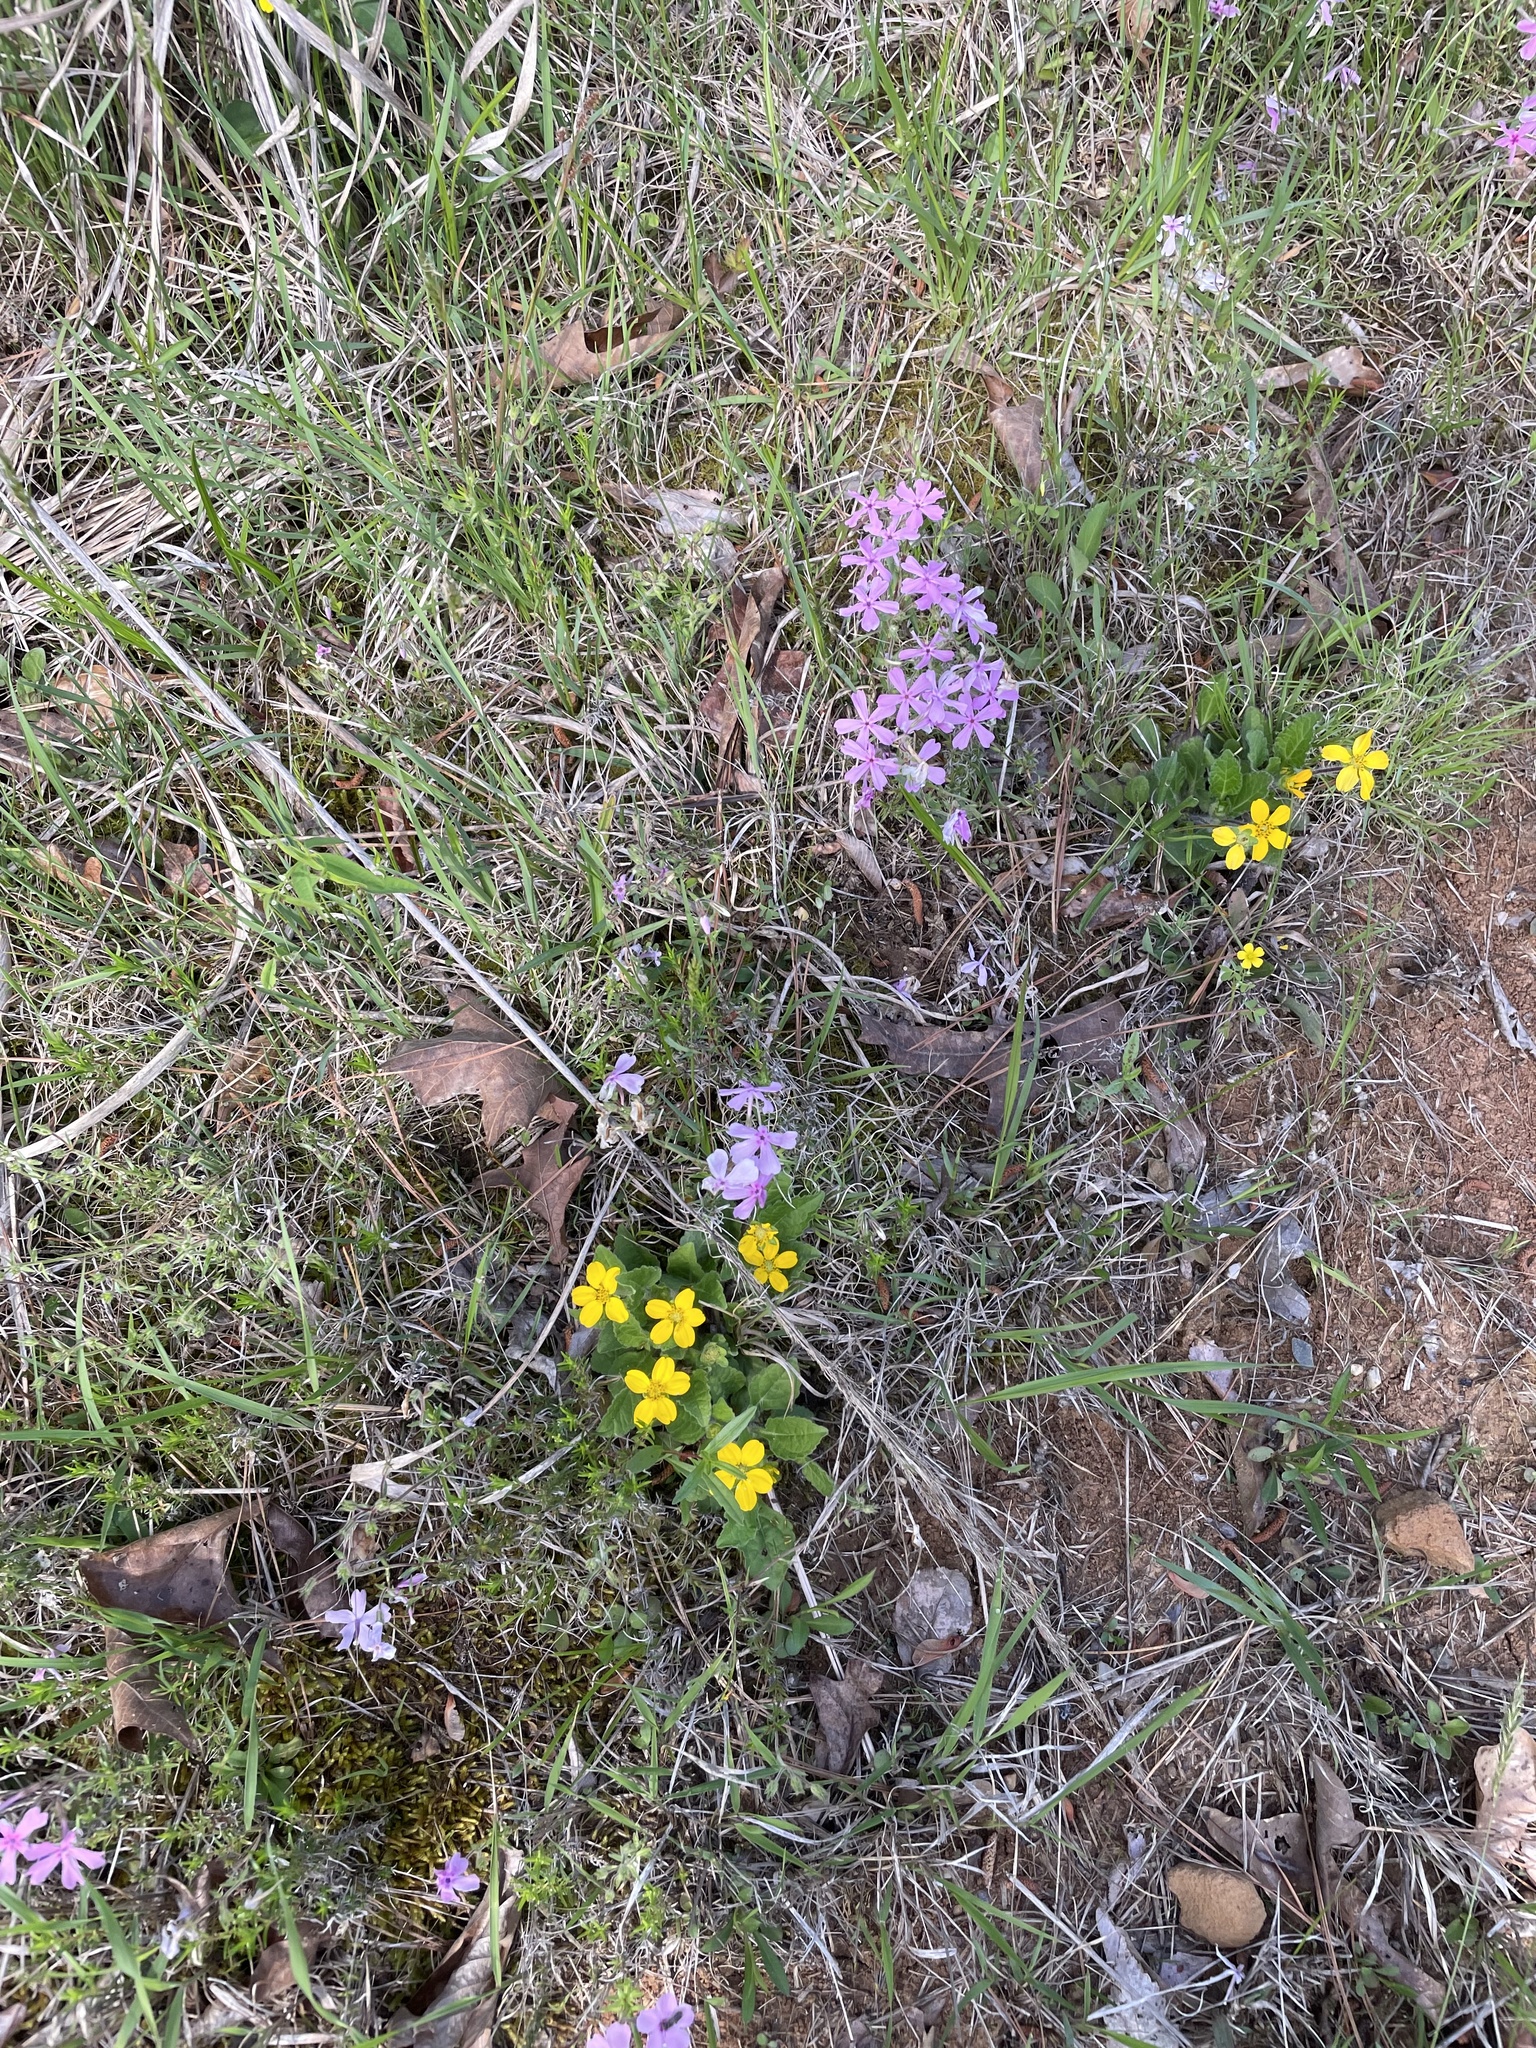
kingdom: Plantae
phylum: Tracheophyta
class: Magnoliopsida
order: Asterales
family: Asteraceae
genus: Chrysogonum
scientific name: Chrysogonum virginianum
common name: Golden-knee
